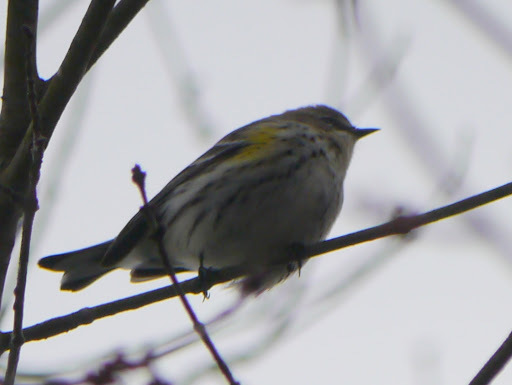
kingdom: Animalia
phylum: Chordata
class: Aves
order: Passeriformes
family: Parulidae
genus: Setophaga
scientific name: Setophaga coronata
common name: Myrtle warbler
